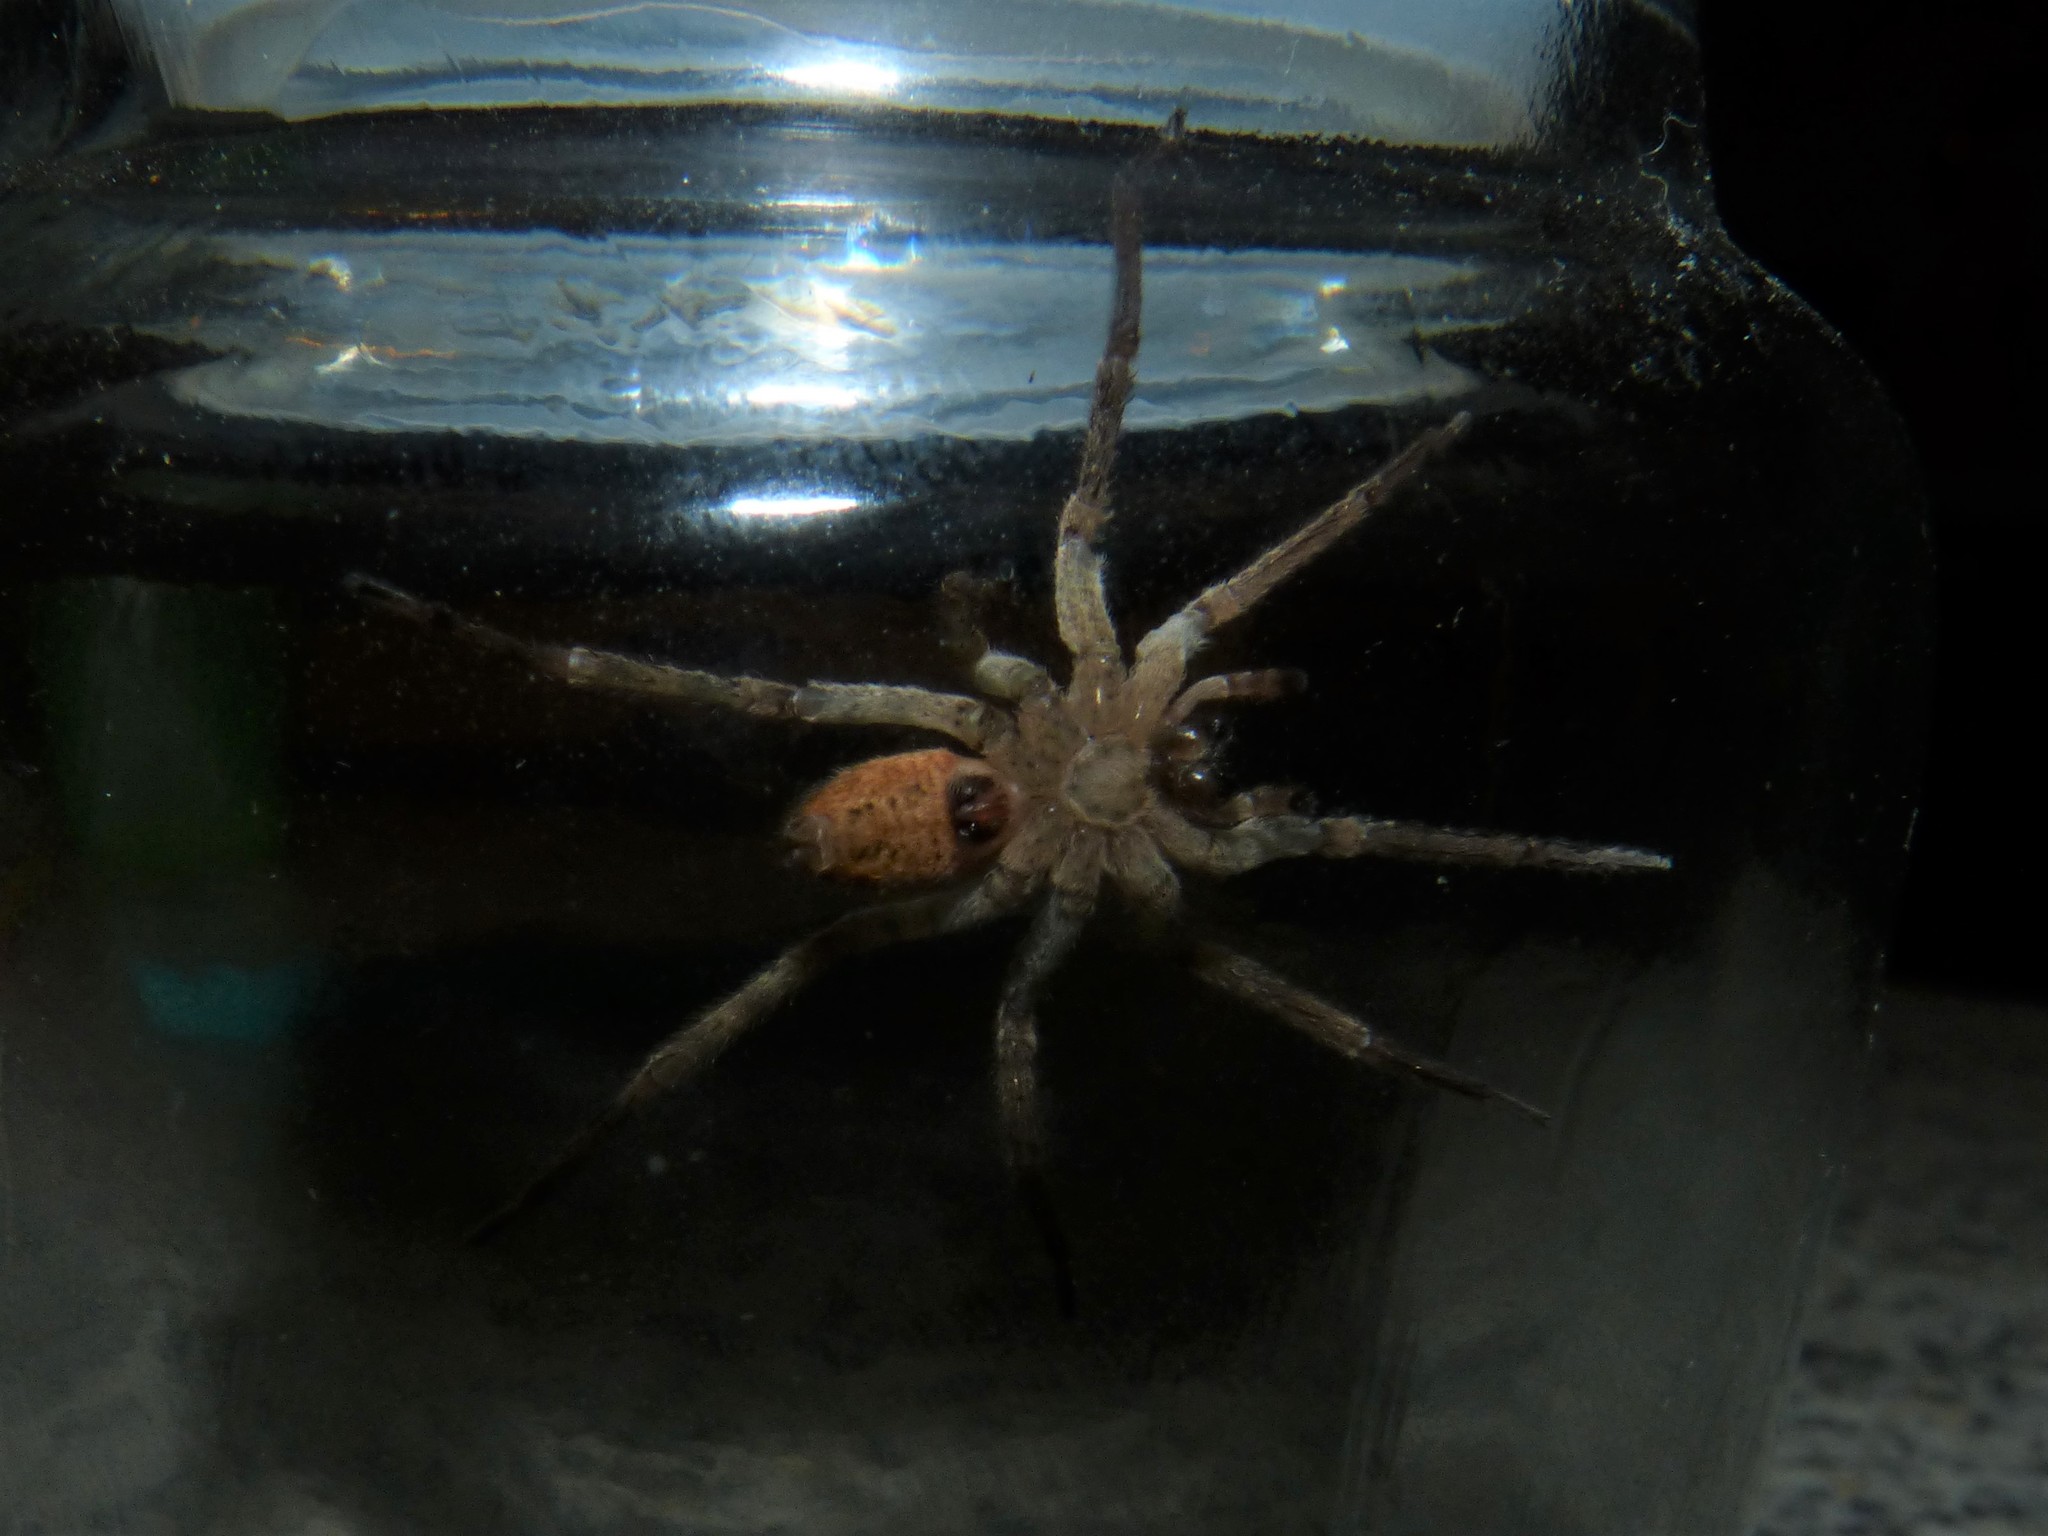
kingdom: Animalia
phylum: Arthropoda
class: Arachnida
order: Araneae
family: Zoropsidae
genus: Zoropsis
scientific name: Zoropsis spinimana
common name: Zoropsid spider
